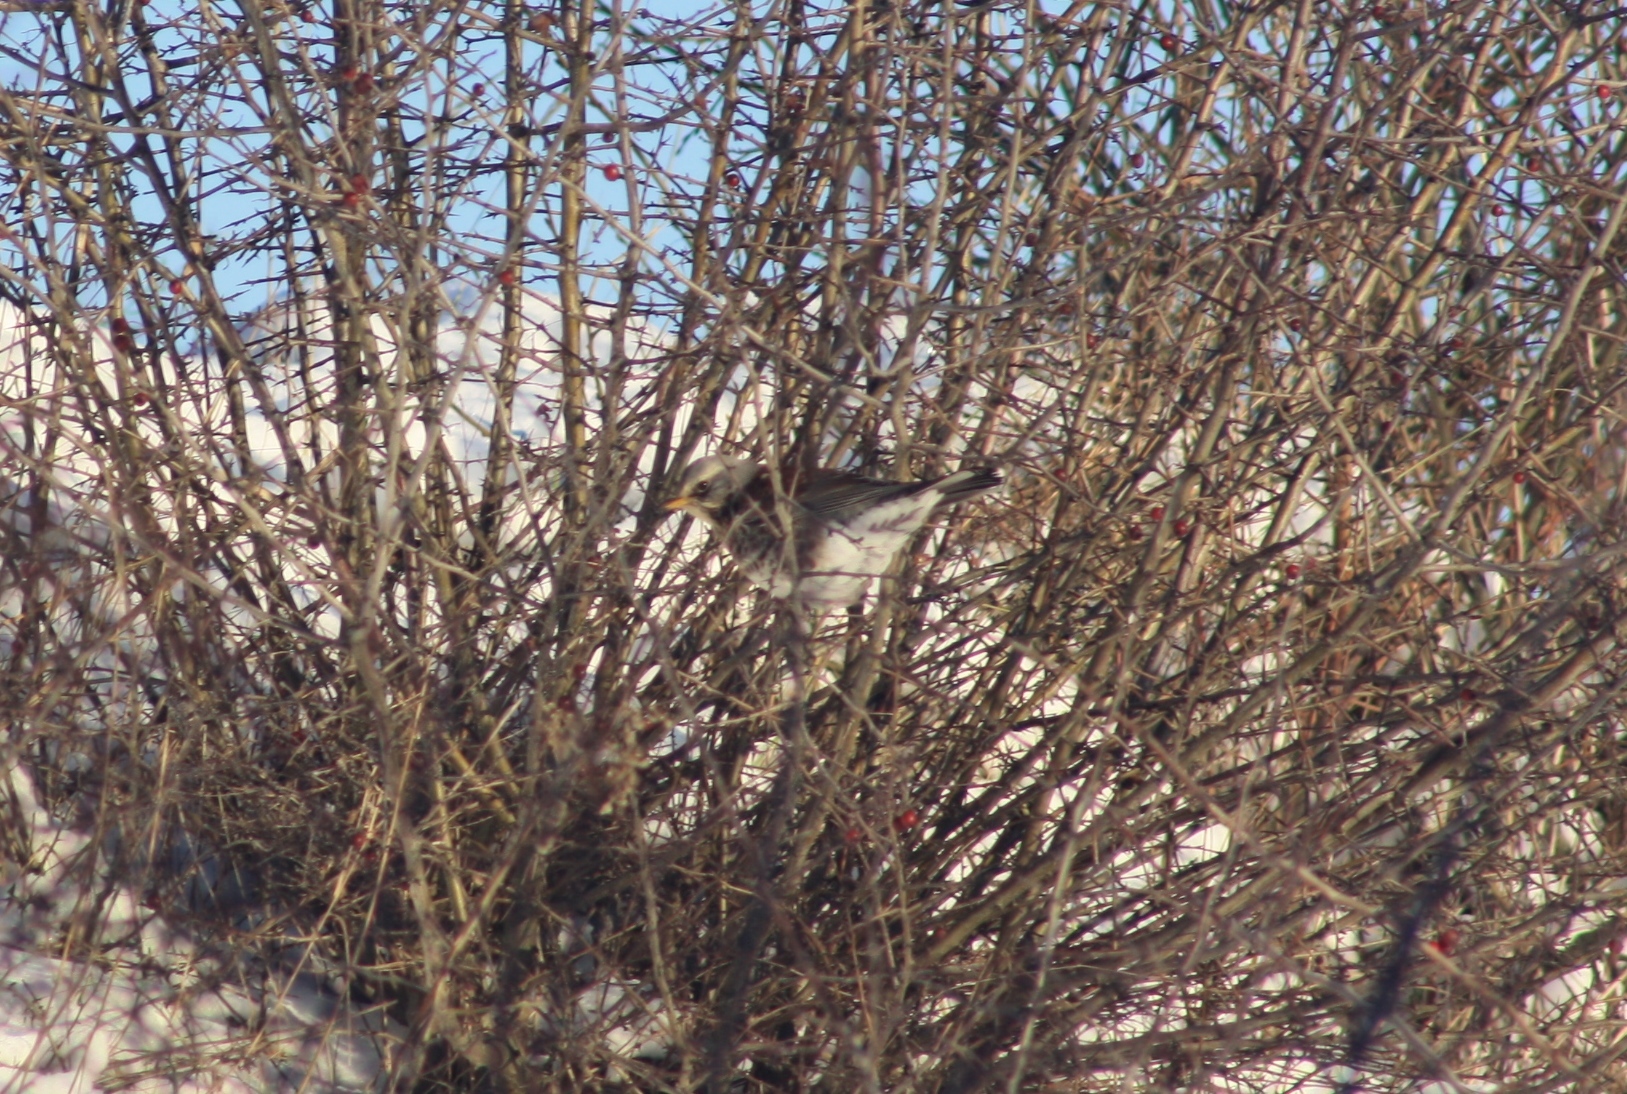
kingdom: Animalia
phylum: Chordata
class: Aves
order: Passeriformes
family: Turdidae
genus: Turdus
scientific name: Turdus pilaris
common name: Fieldfare
